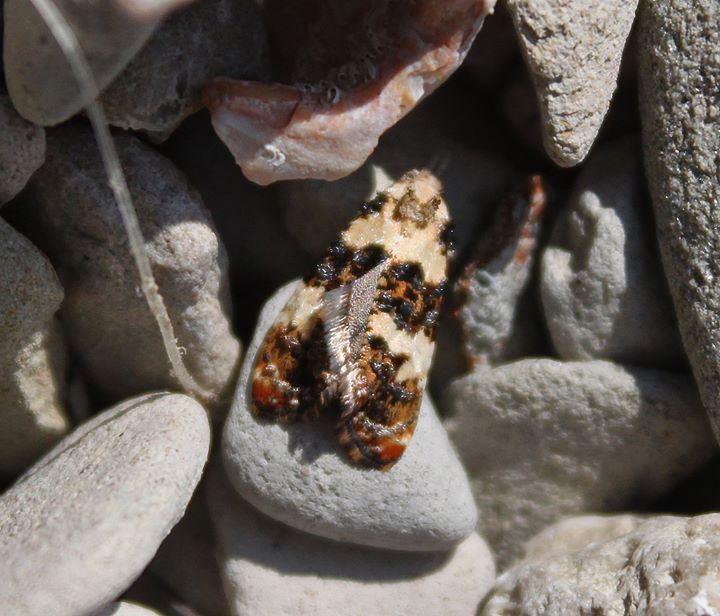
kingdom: Animalia
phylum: Arthropoda
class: Insecta
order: Lepidoptera
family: Tortricidae
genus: Phtheochroa
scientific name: Phtheochroa duponchelana
